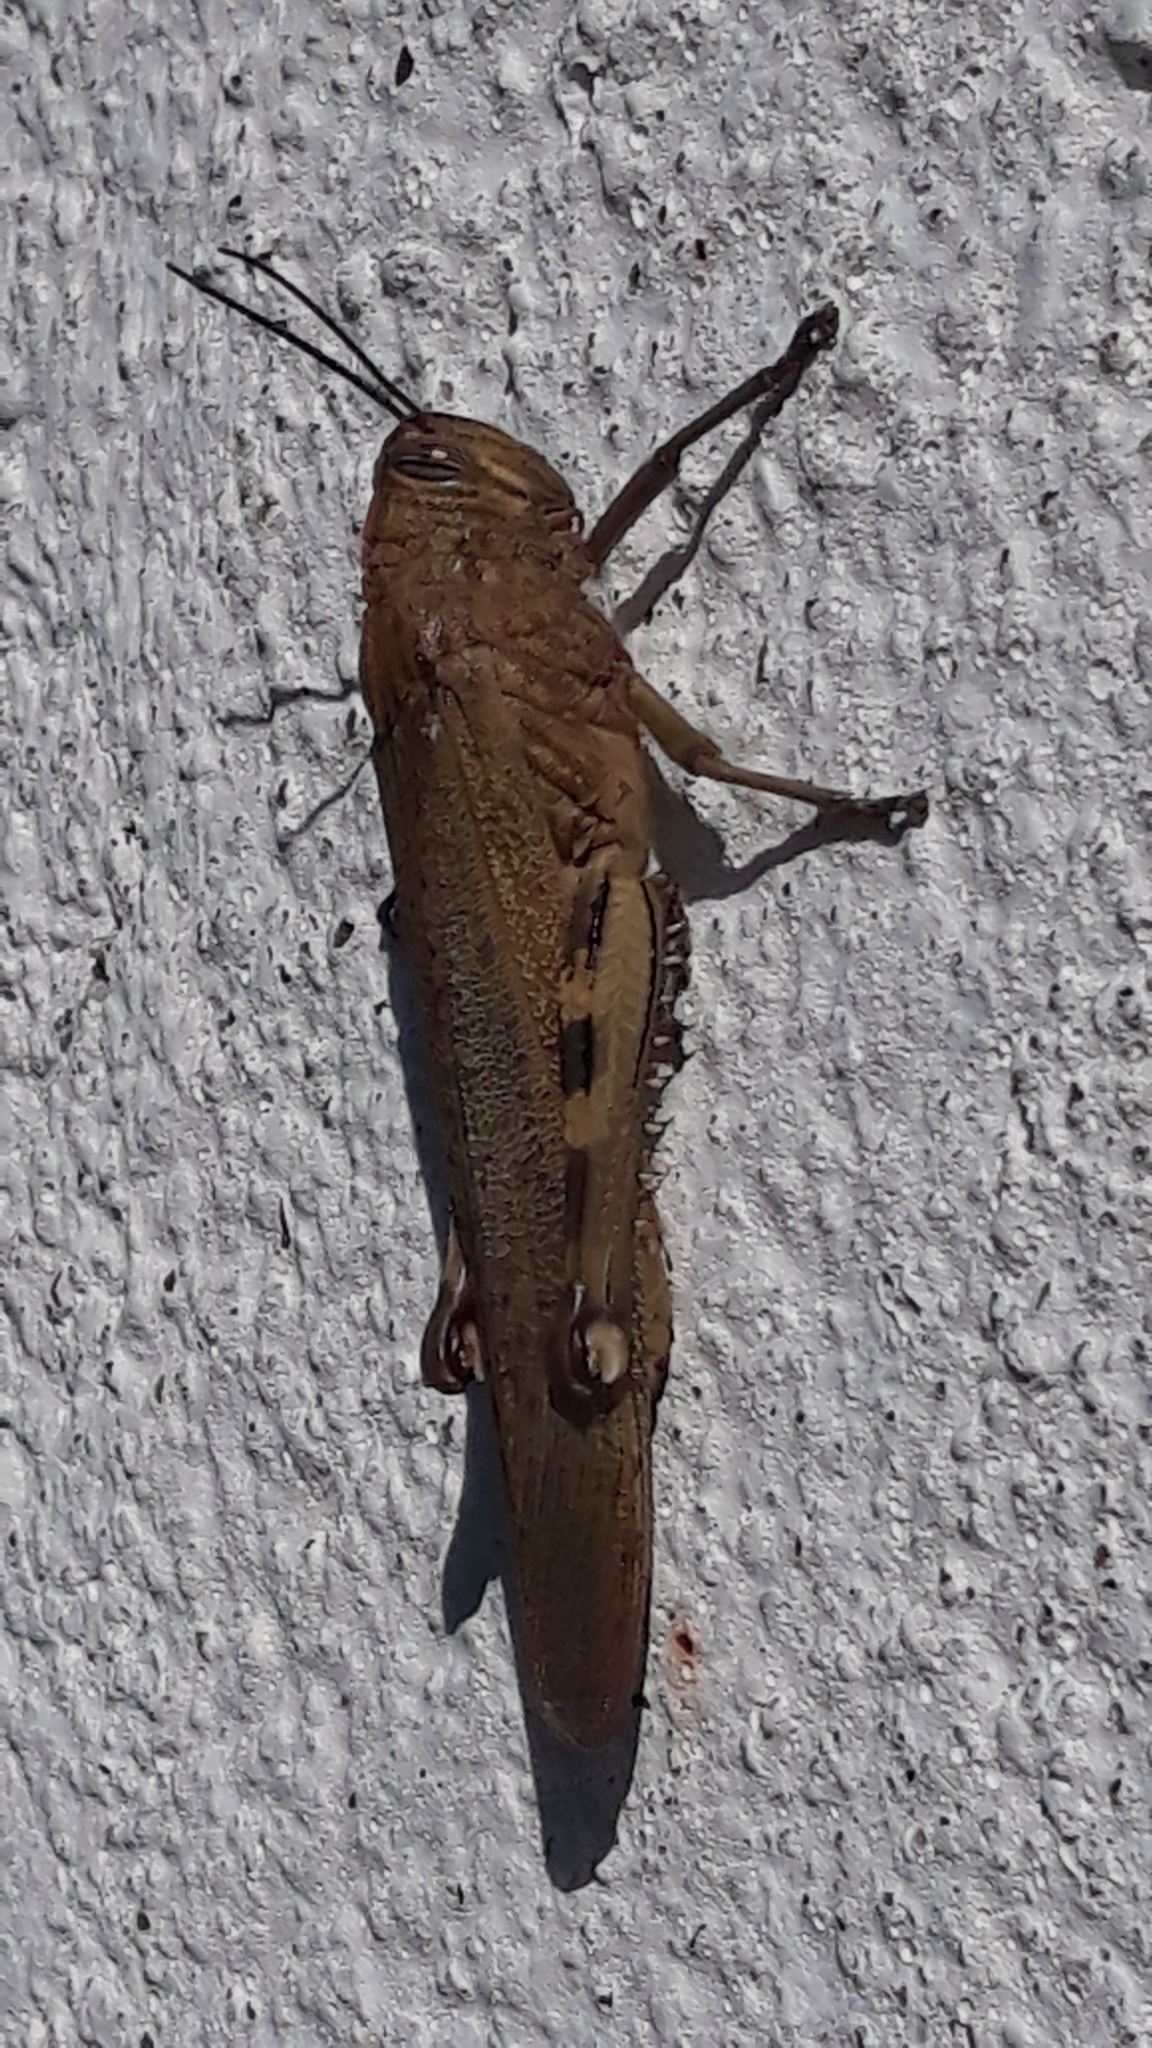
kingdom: Animalia
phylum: Arthropoda
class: Insecta
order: Orthoptera
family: Acrididae
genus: Anacridium
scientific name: Anacridium aegyptium
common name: Egyptian grasshopper
